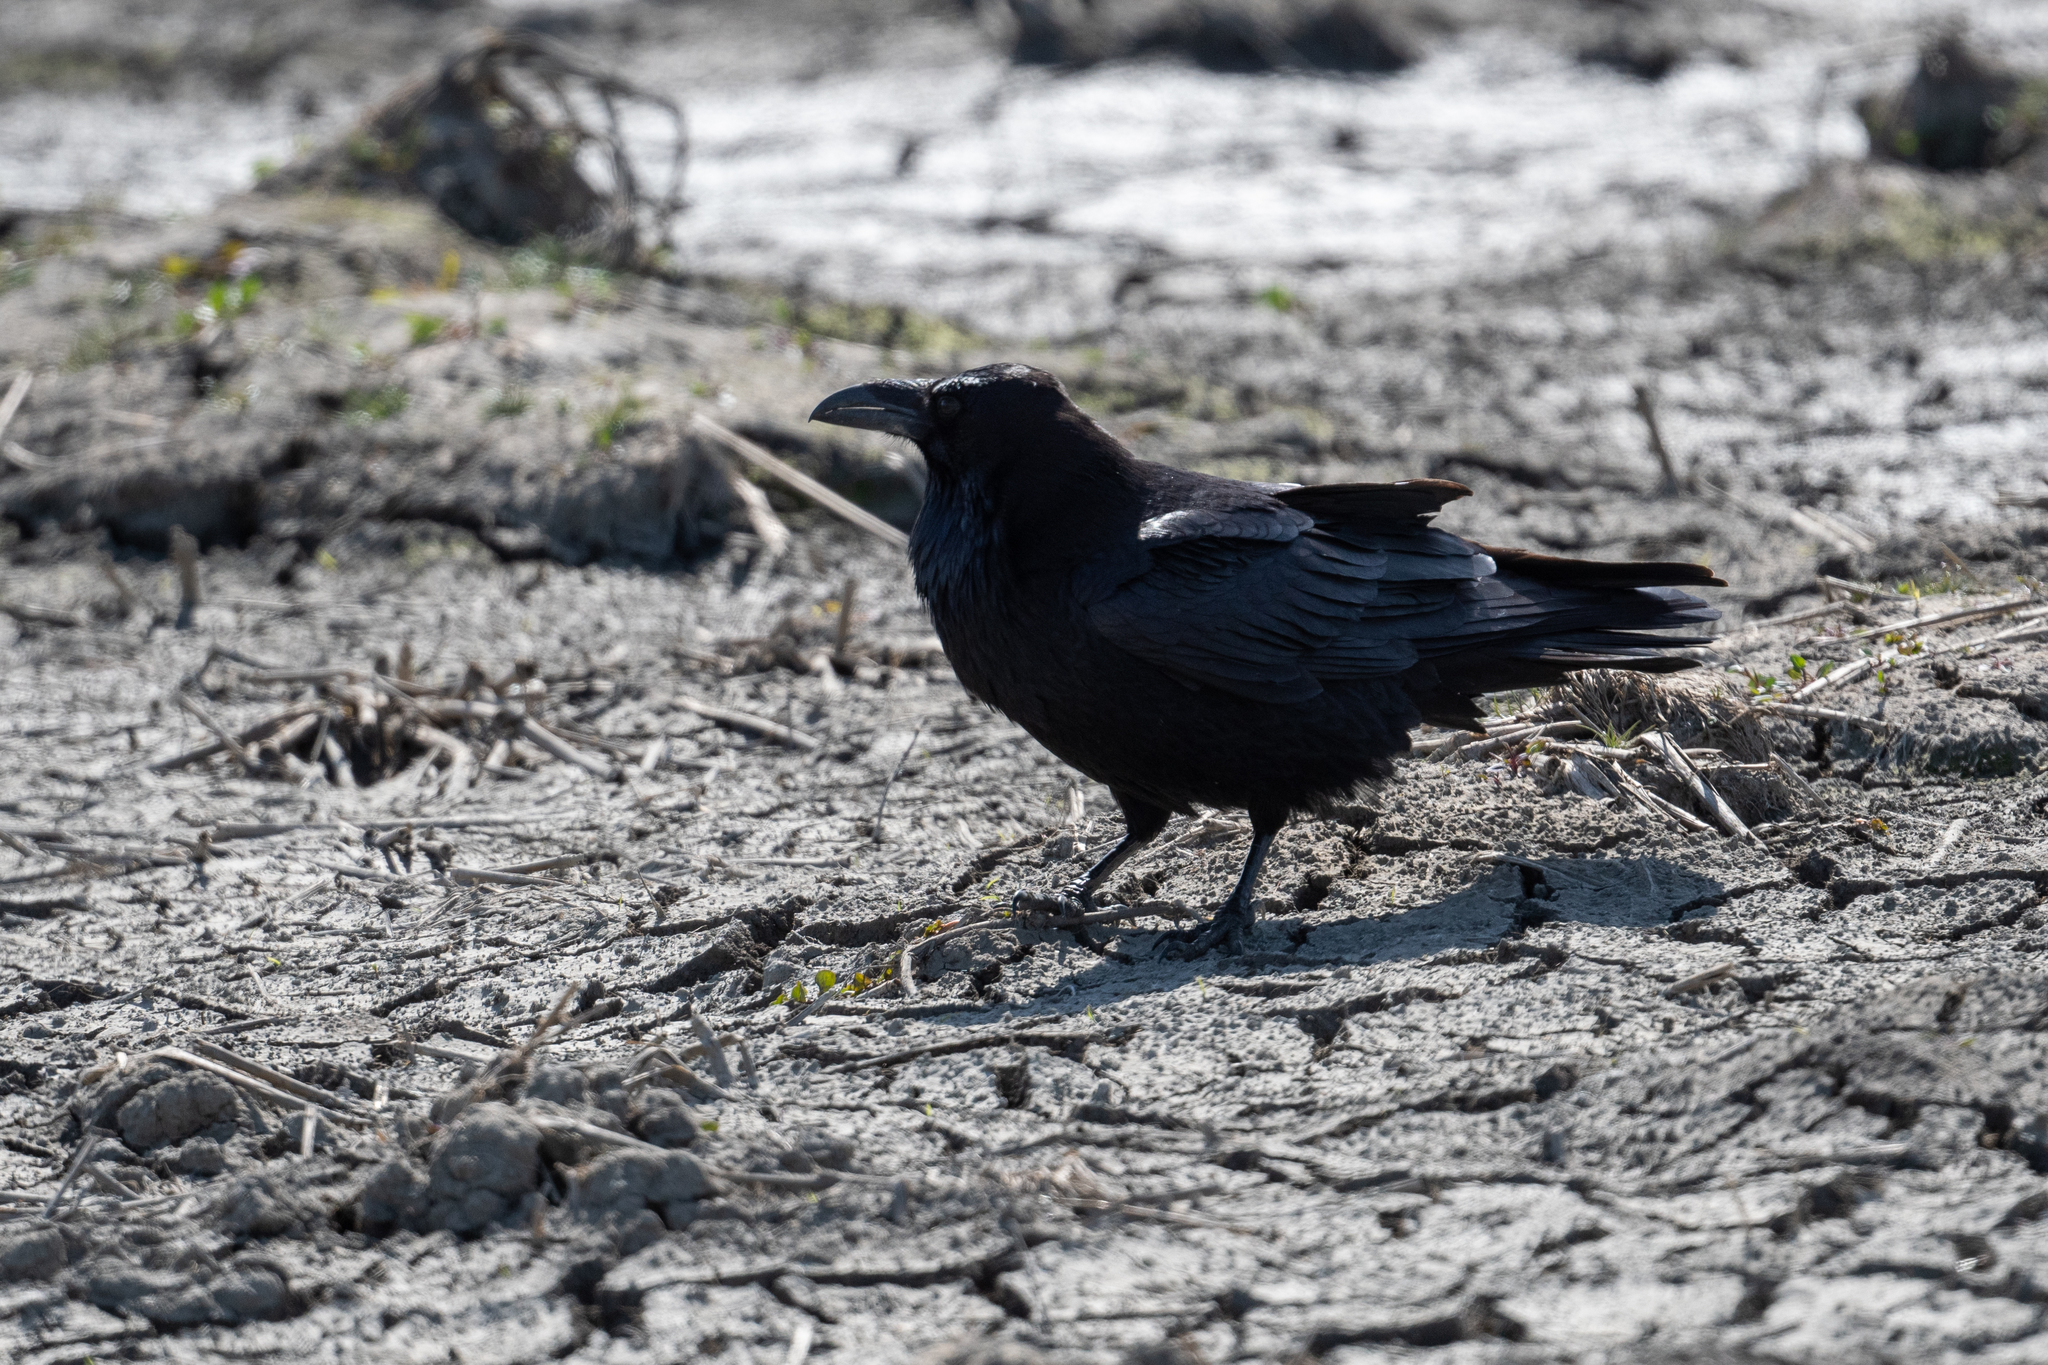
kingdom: Animalia
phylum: Chordata
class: Aves
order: Passeriformes
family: Corvidae
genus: Corvus
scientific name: Corvus corax
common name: Common raven
